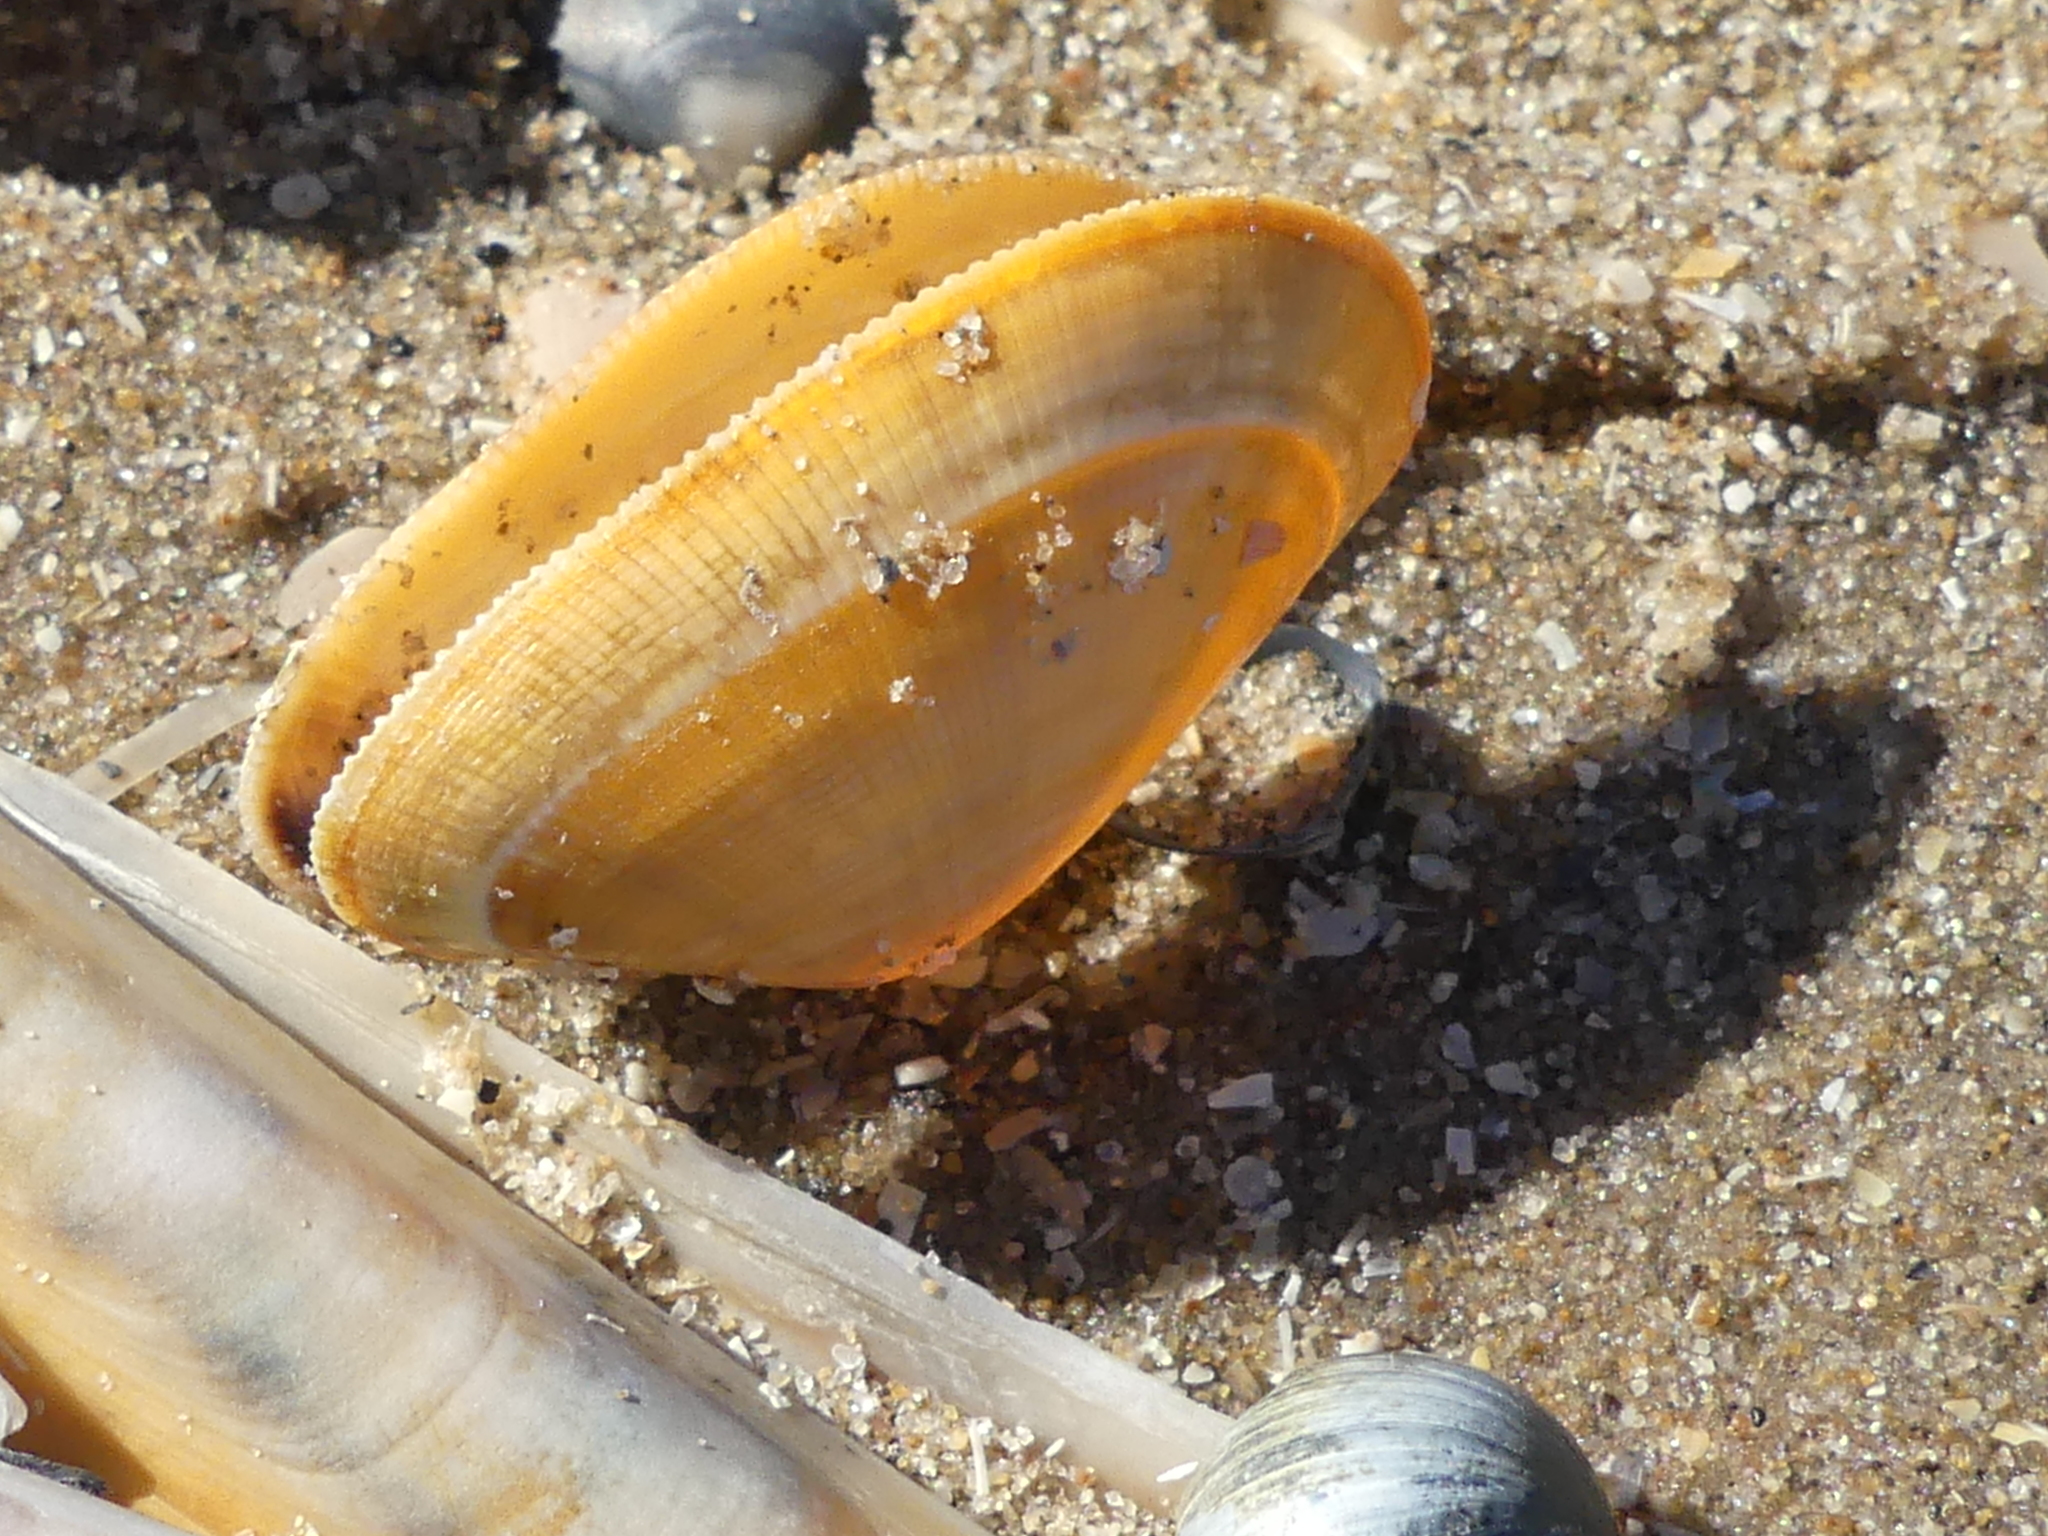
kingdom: Animalia
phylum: Mollusca
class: Bivalvia
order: Cardiida
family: Donacidae
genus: Donax
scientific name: Donax vittatus
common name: Banded wedge-shell
